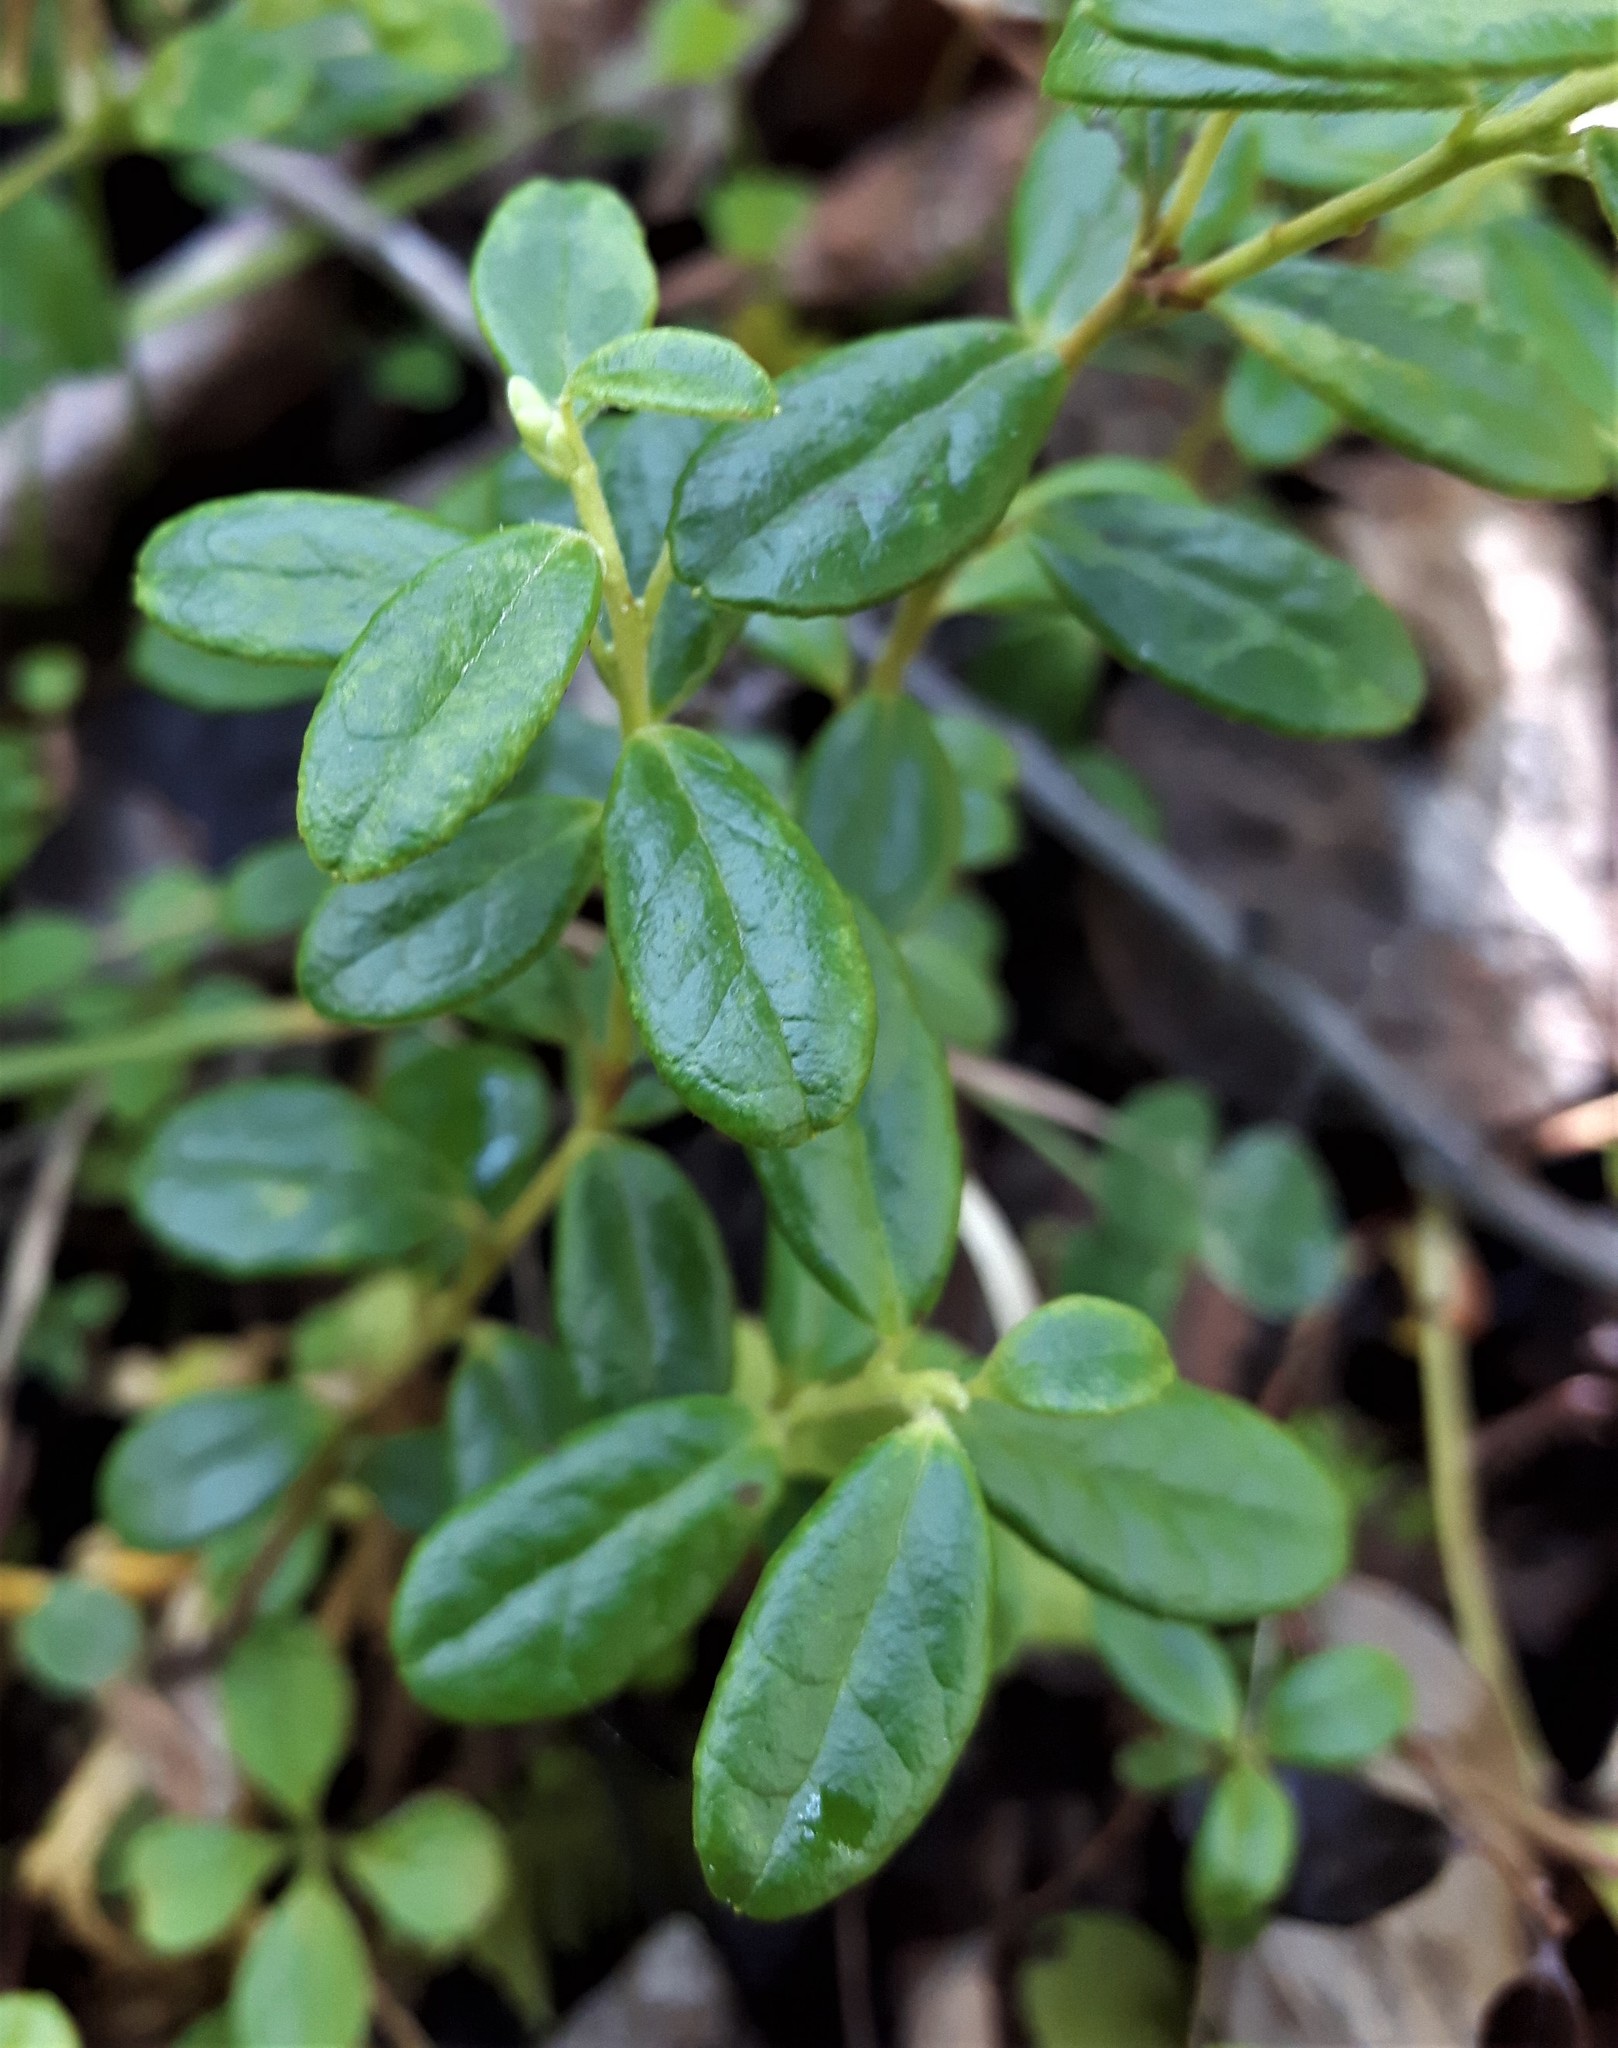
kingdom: Plantae
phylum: Tracheophyta
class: Magnoliopsida
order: Ericales
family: Ericaceae
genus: Vaccinium
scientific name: Vaccinium vitis-idaea
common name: Cowberry
